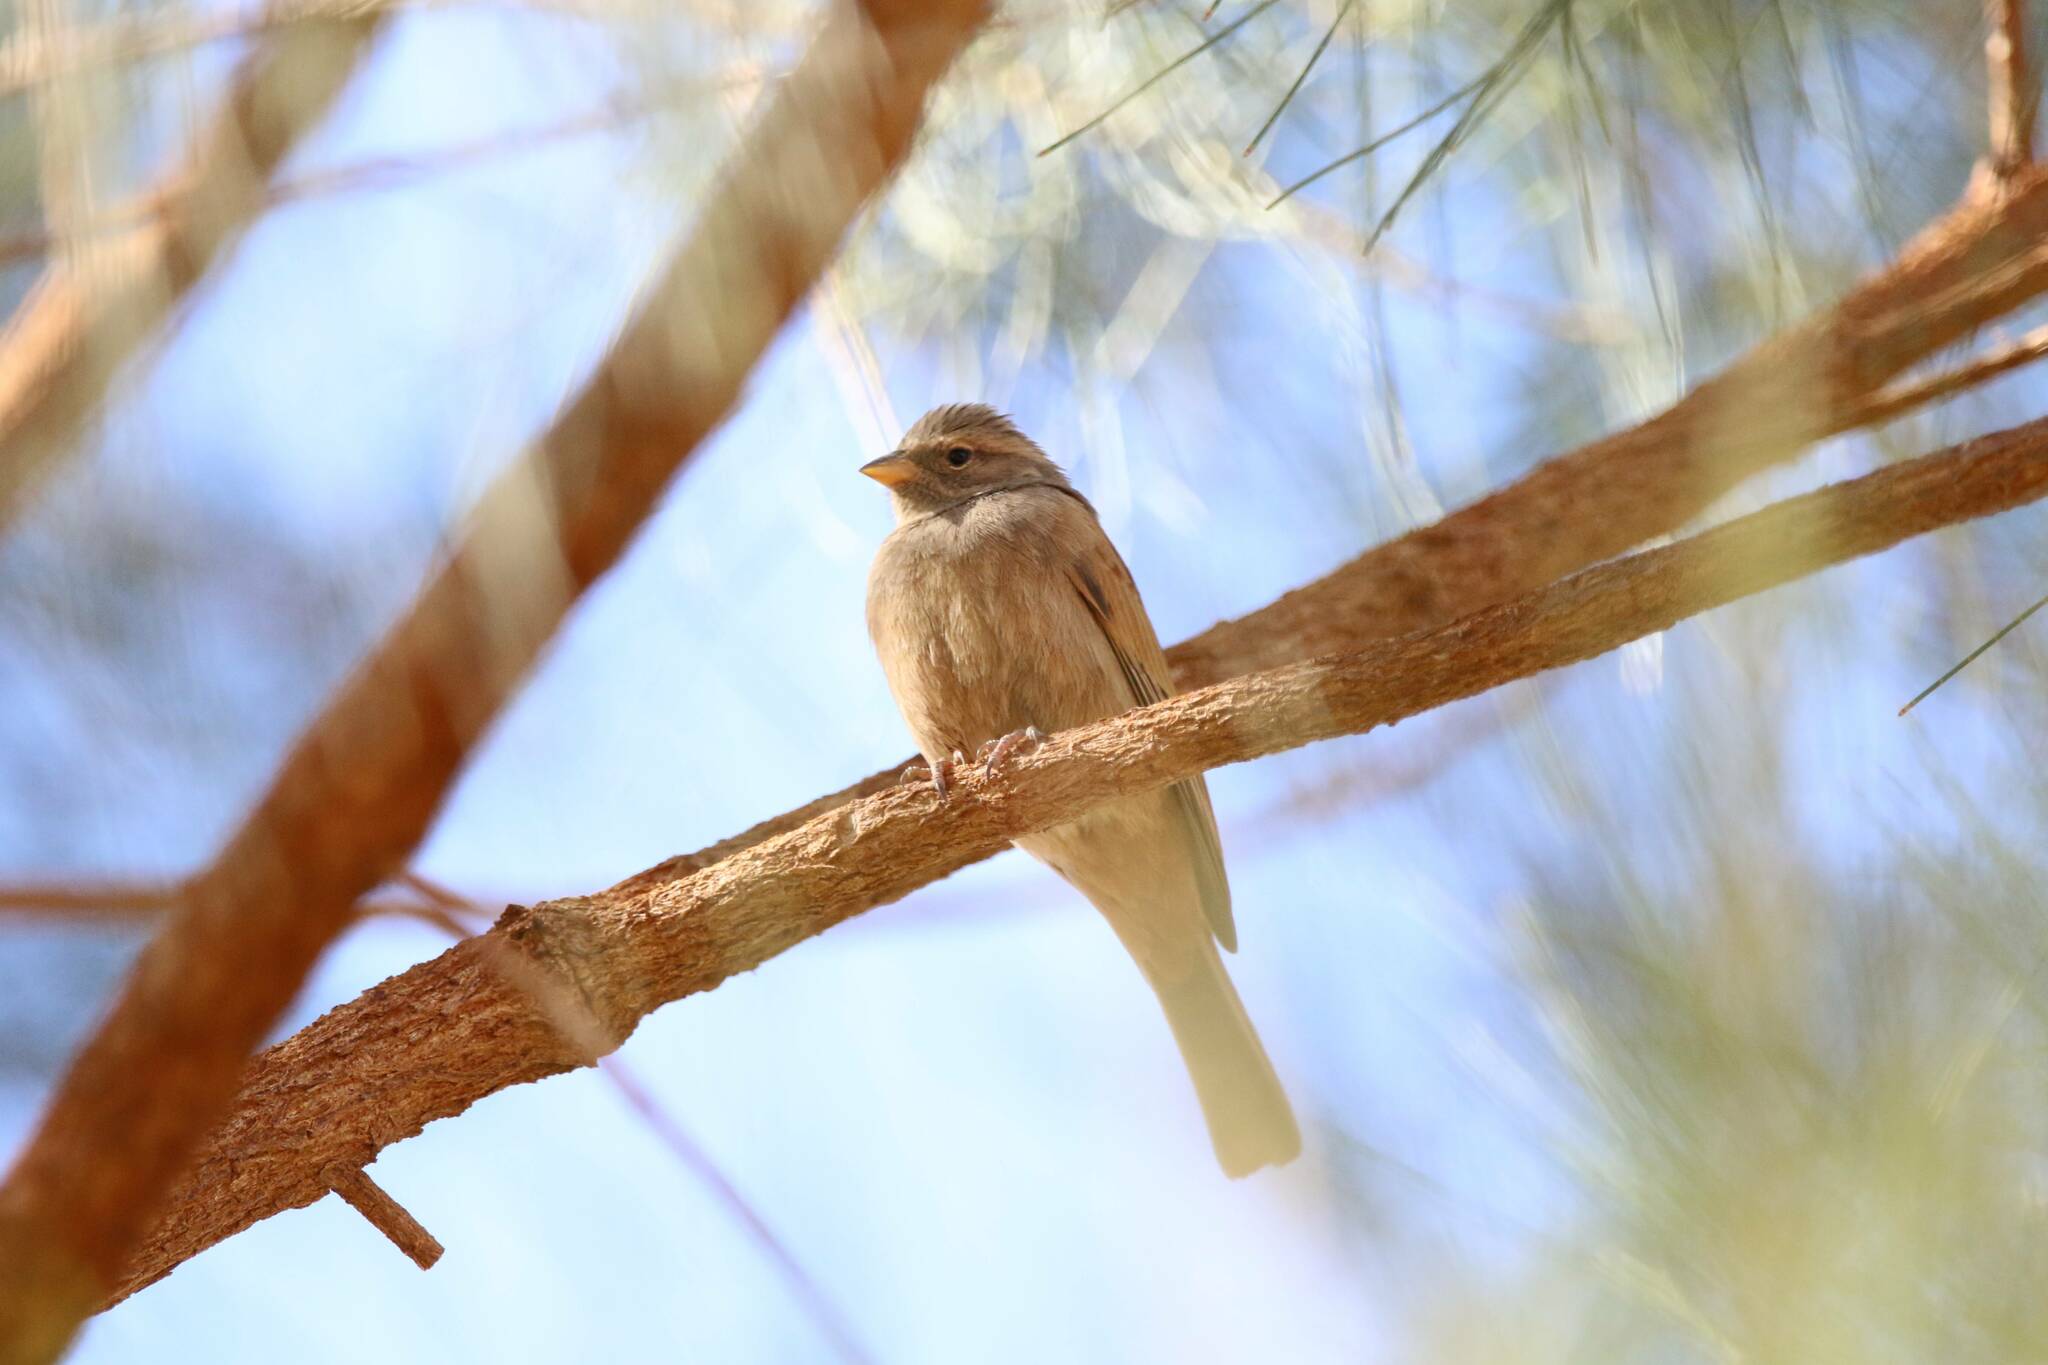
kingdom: Animalia
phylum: Chordata
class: Aves
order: Passeriformes
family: Emberizidae
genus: Emberiza
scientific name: Emberiza sahari
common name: House bunting
